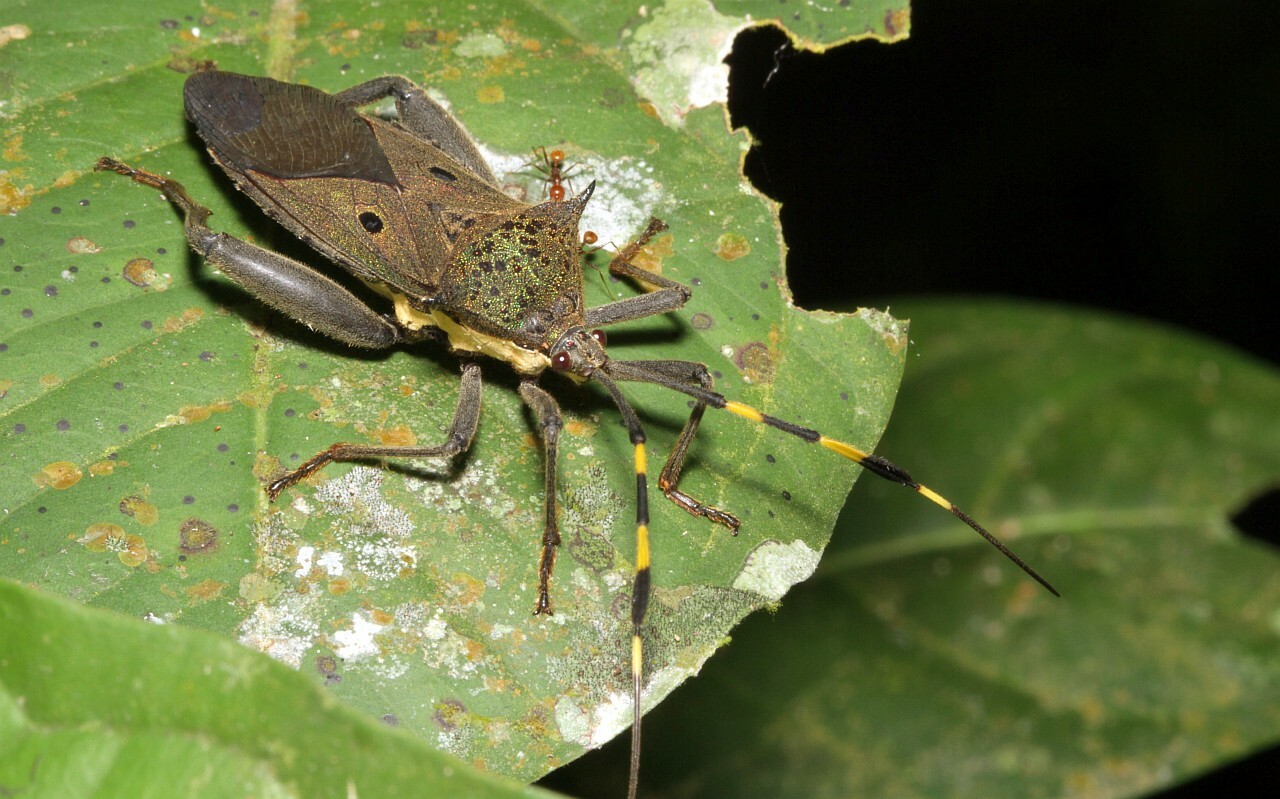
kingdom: Animalia
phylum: Arthropoda
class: Insecta
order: Hemiptera
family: Coreidae
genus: Molchina
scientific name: Molchina hopei
